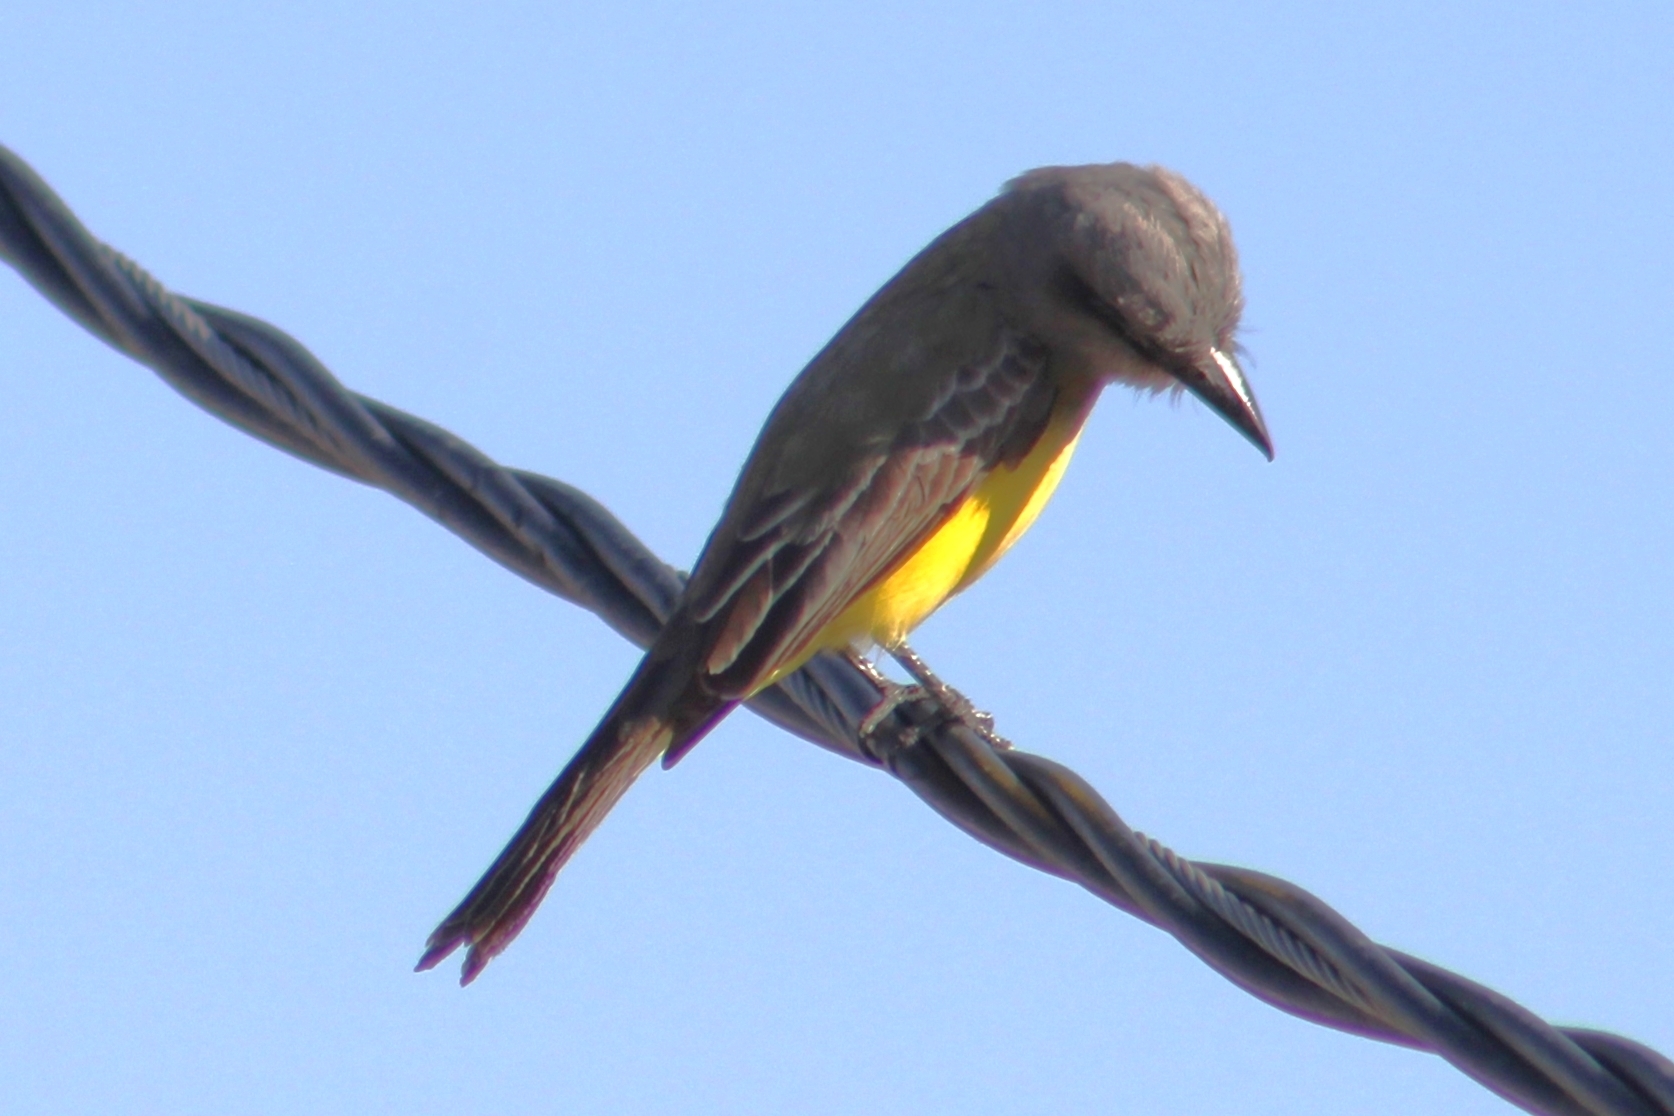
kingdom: Animalia
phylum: Chordata
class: Aves
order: Passeriformes
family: Tyrannidae
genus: Tyrannus
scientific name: Tyrannus melancholicus
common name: Tropical kingbird
